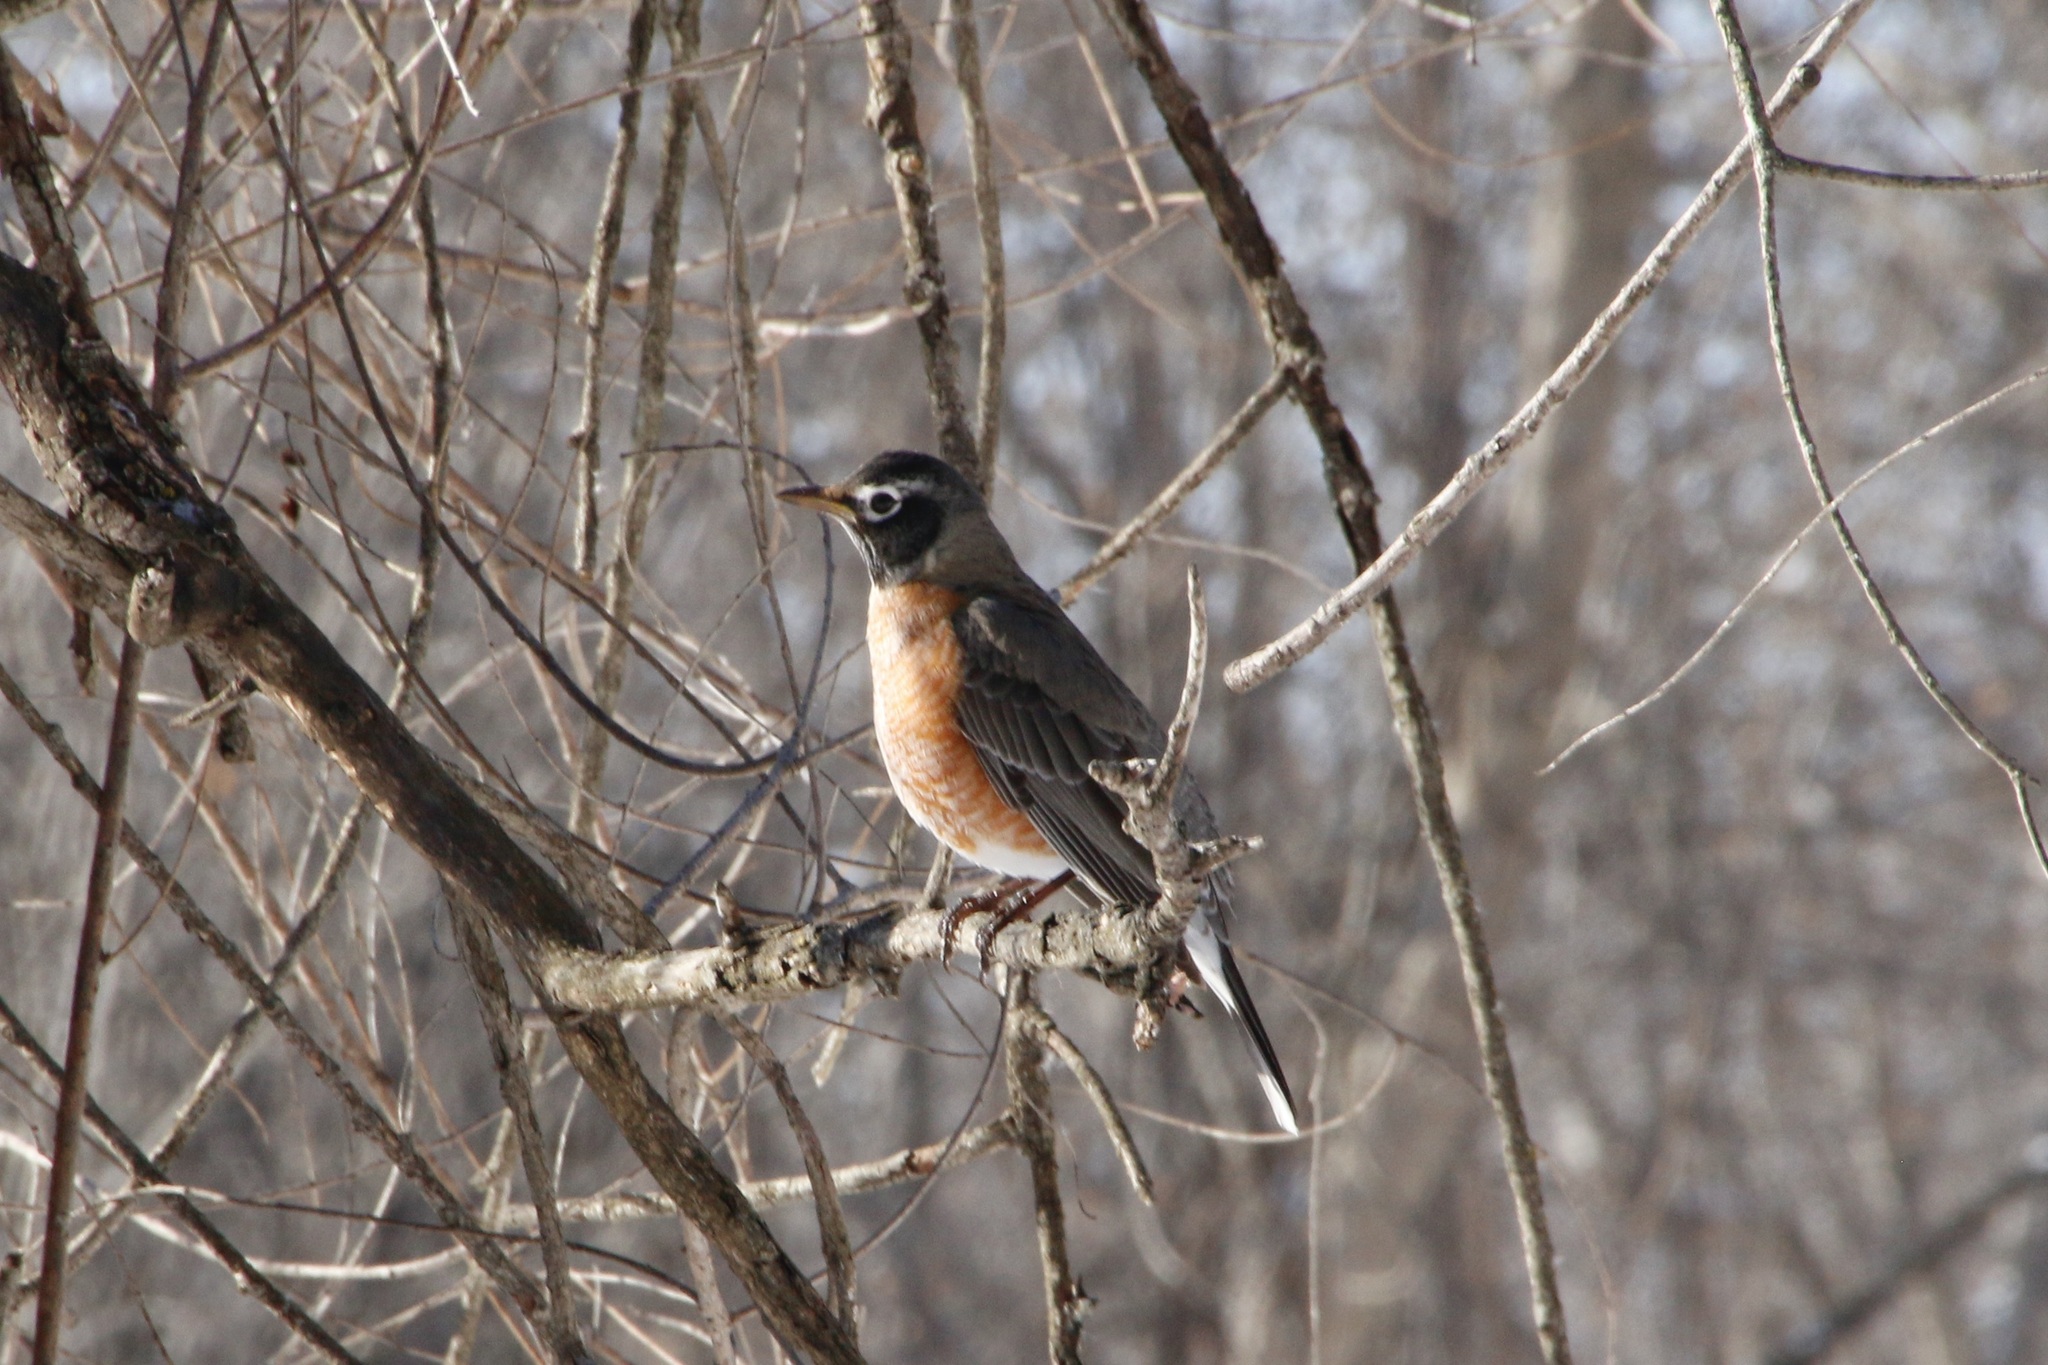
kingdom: Animalia
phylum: Chordata
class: Aves
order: Passeriformes
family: Turdidae
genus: Turdus
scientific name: Turdus migratorius
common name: American robin
